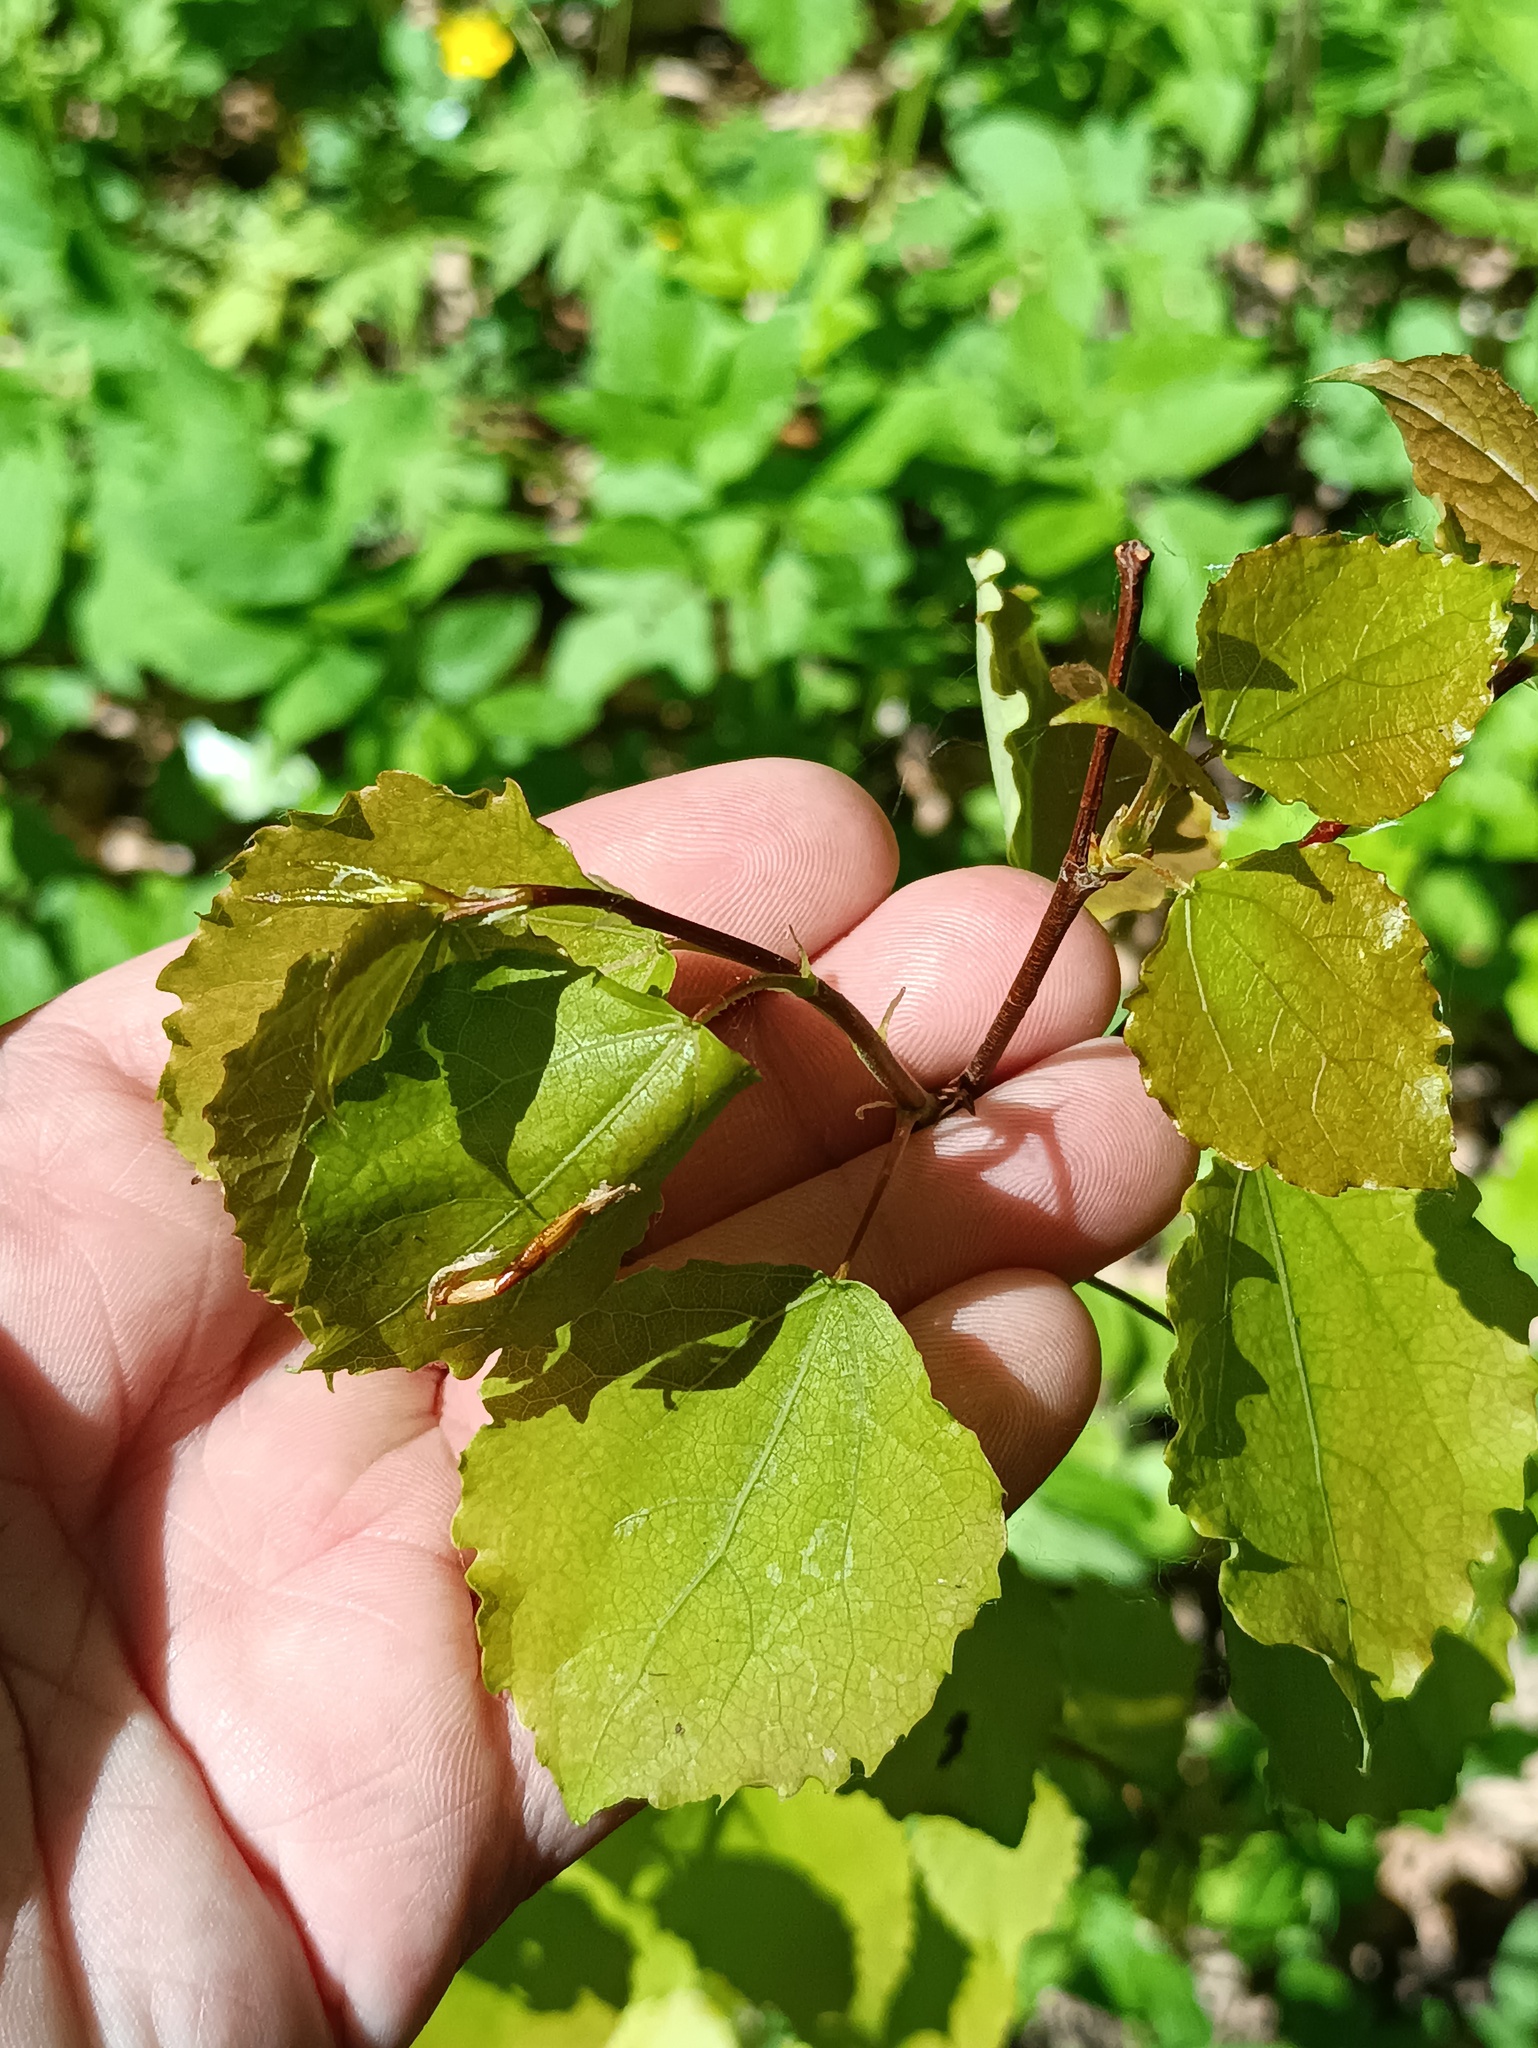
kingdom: Plantae
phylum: Tracheophyta
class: Magnoliopsida
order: Malpighiales
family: Salicaceae
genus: Populus
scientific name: Populus tremula
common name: European aspen
